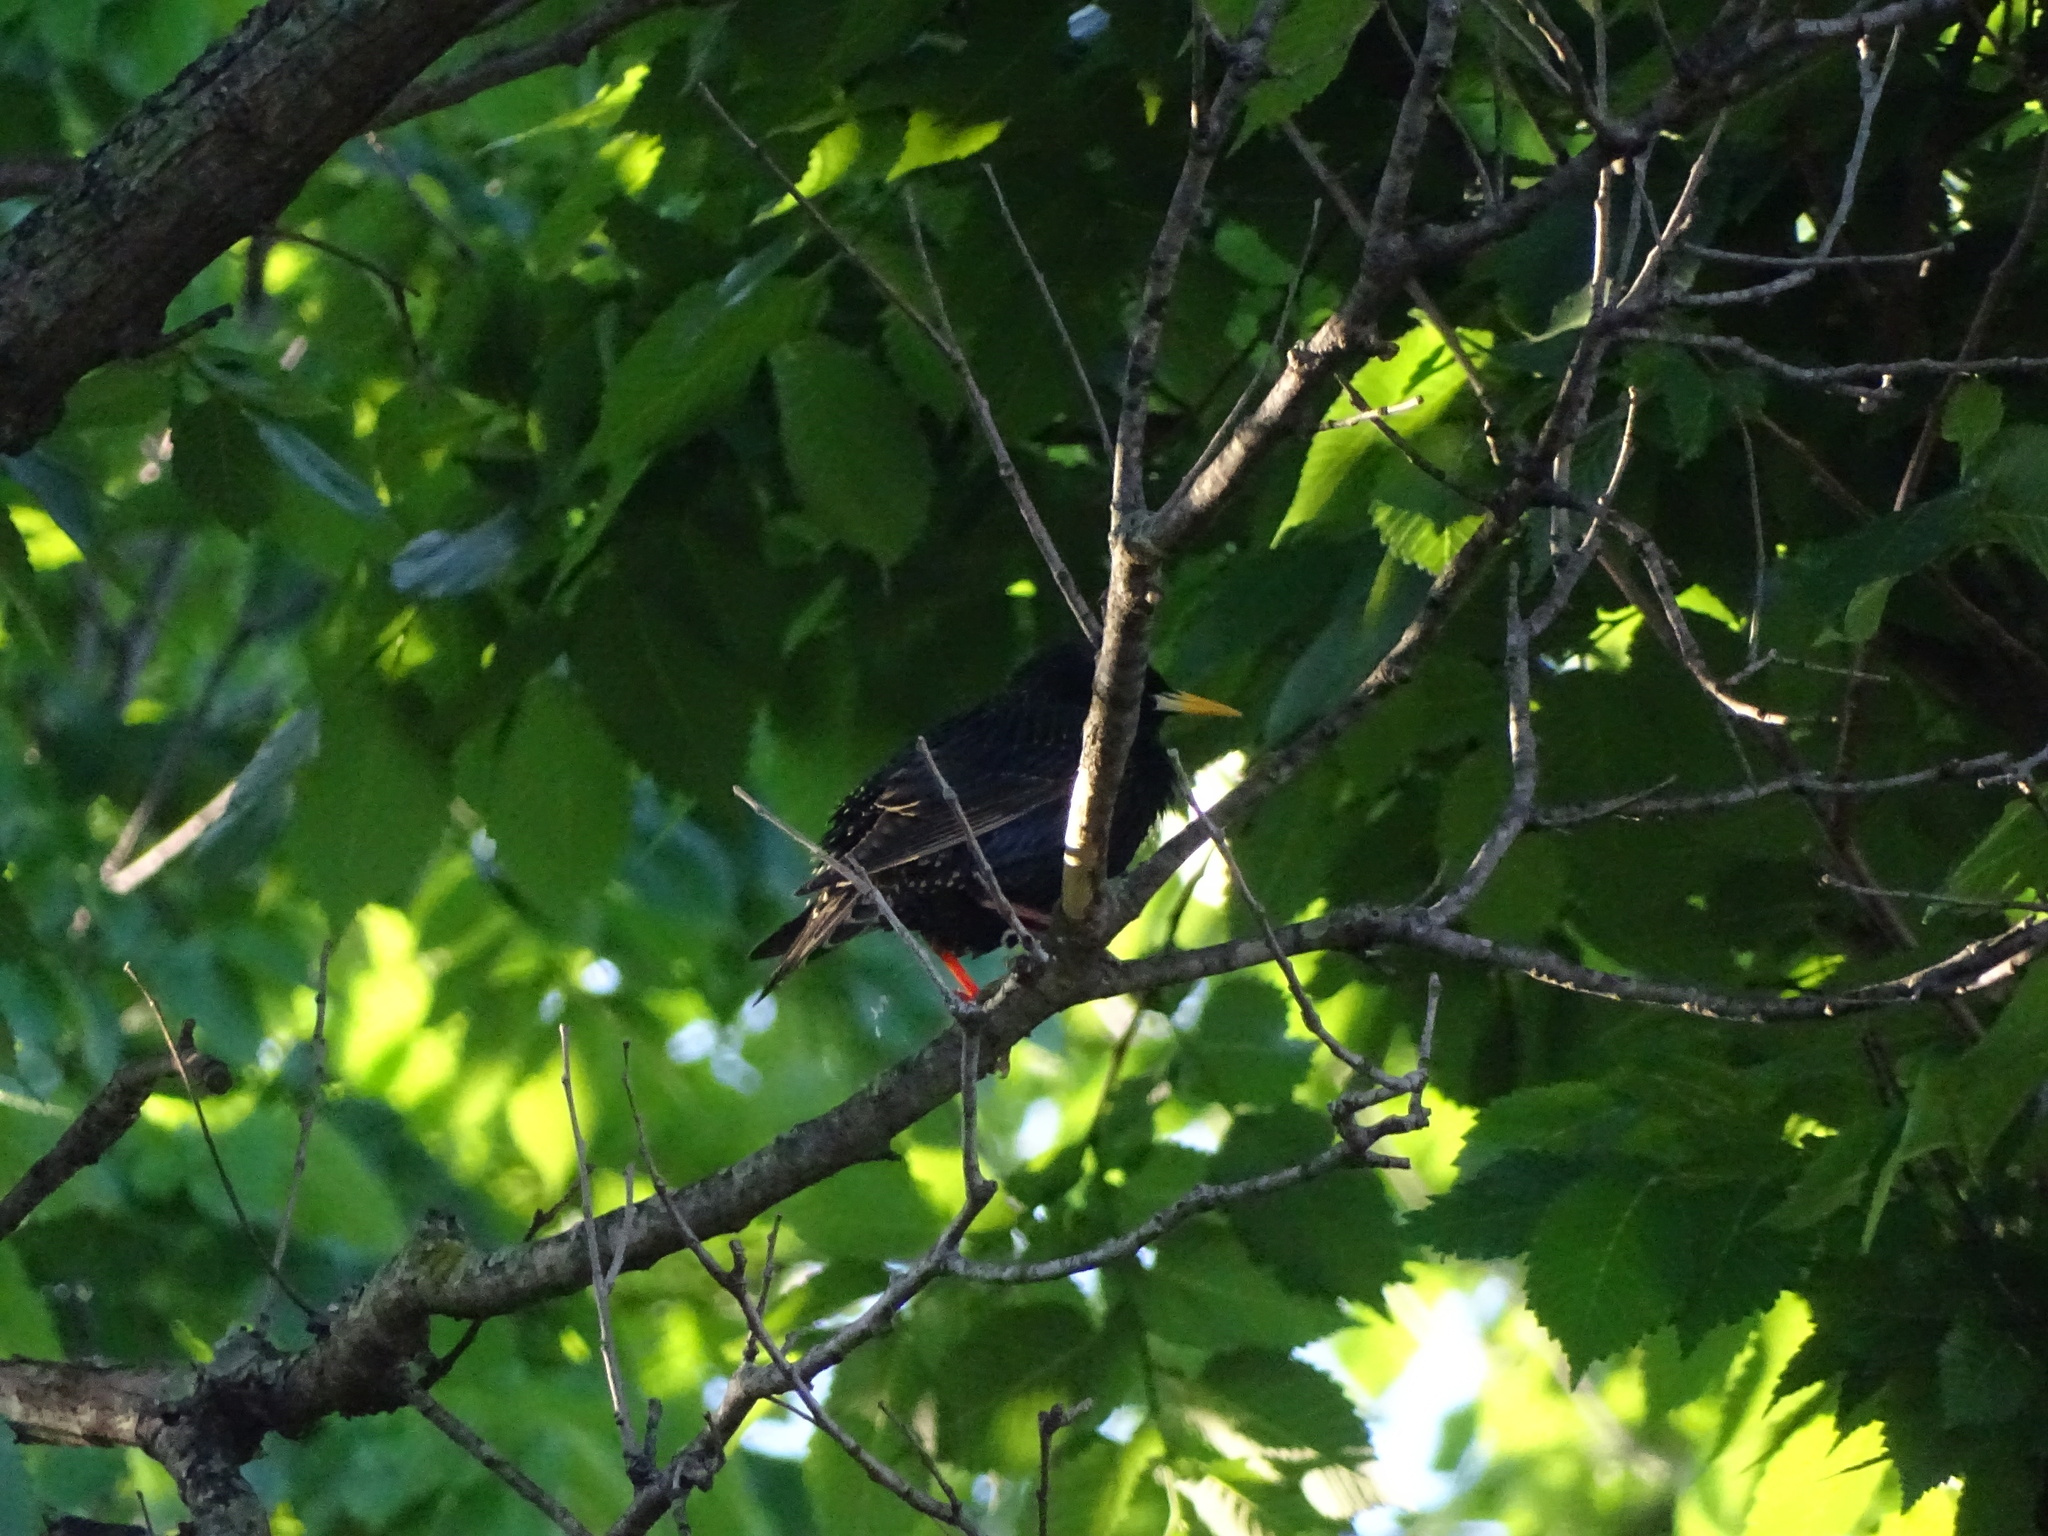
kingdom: Animalia
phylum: Chordata
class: Aves
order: Passeriformes
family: Sturnidae
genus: Sturnus
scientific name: Sturnus vulgaris
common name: Common starling
